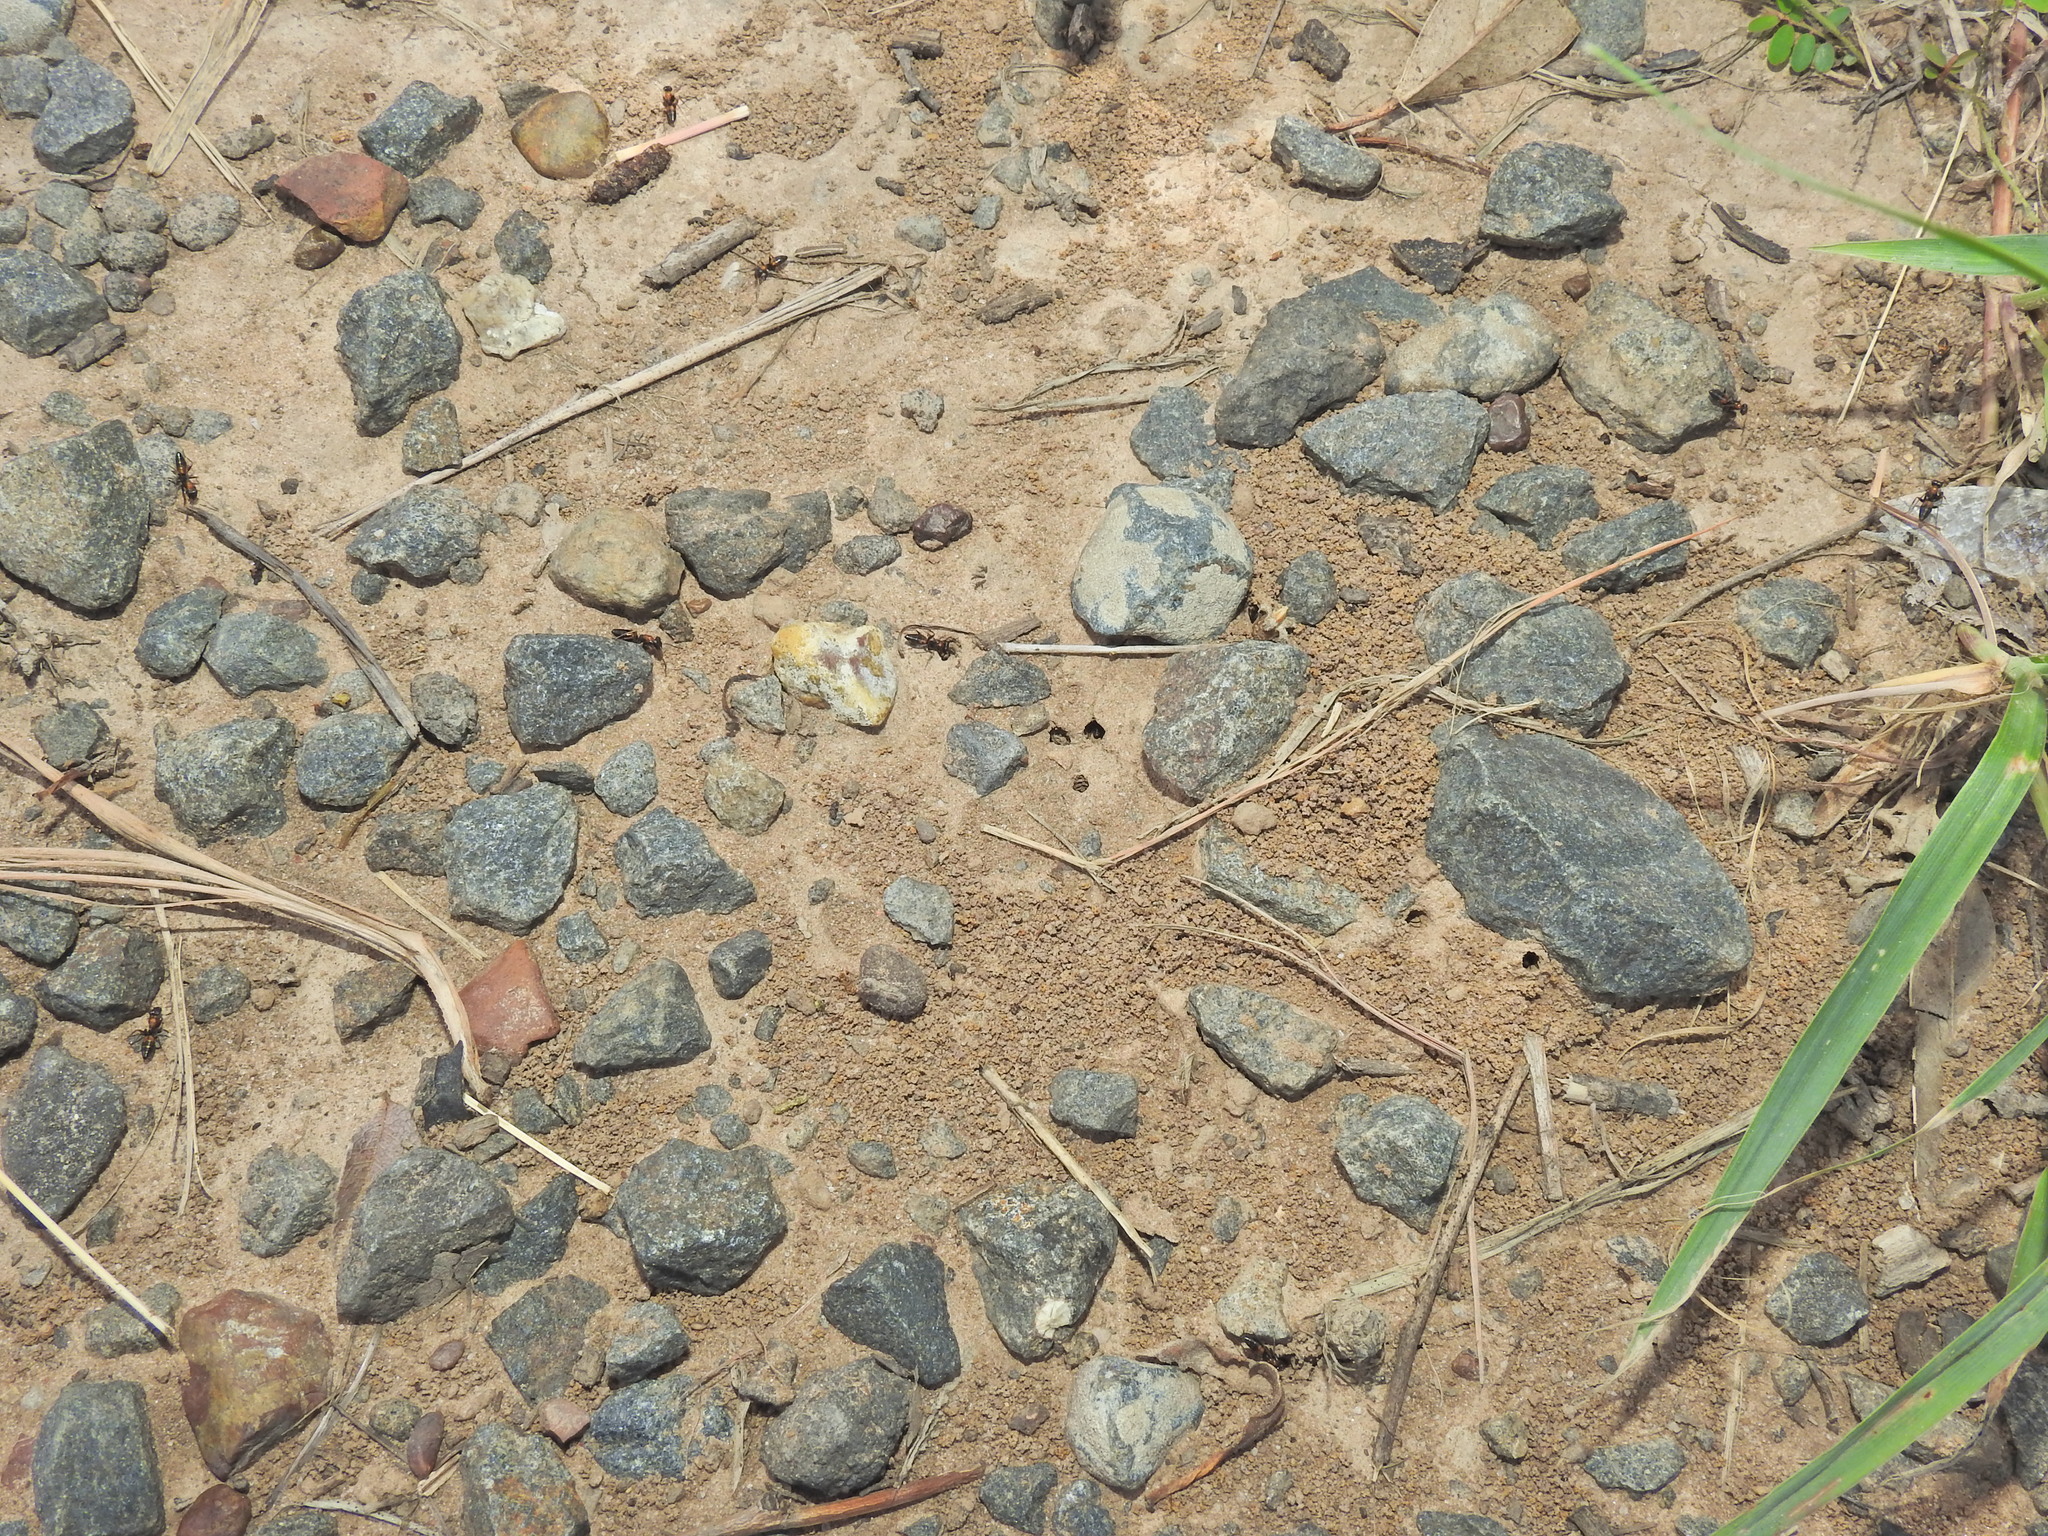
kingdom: Animalia
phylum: Arthropoda
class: Insecta
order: Hymenoptera
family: Formicidae
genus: Opisthopsis
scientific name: Opisthopsis pictus
